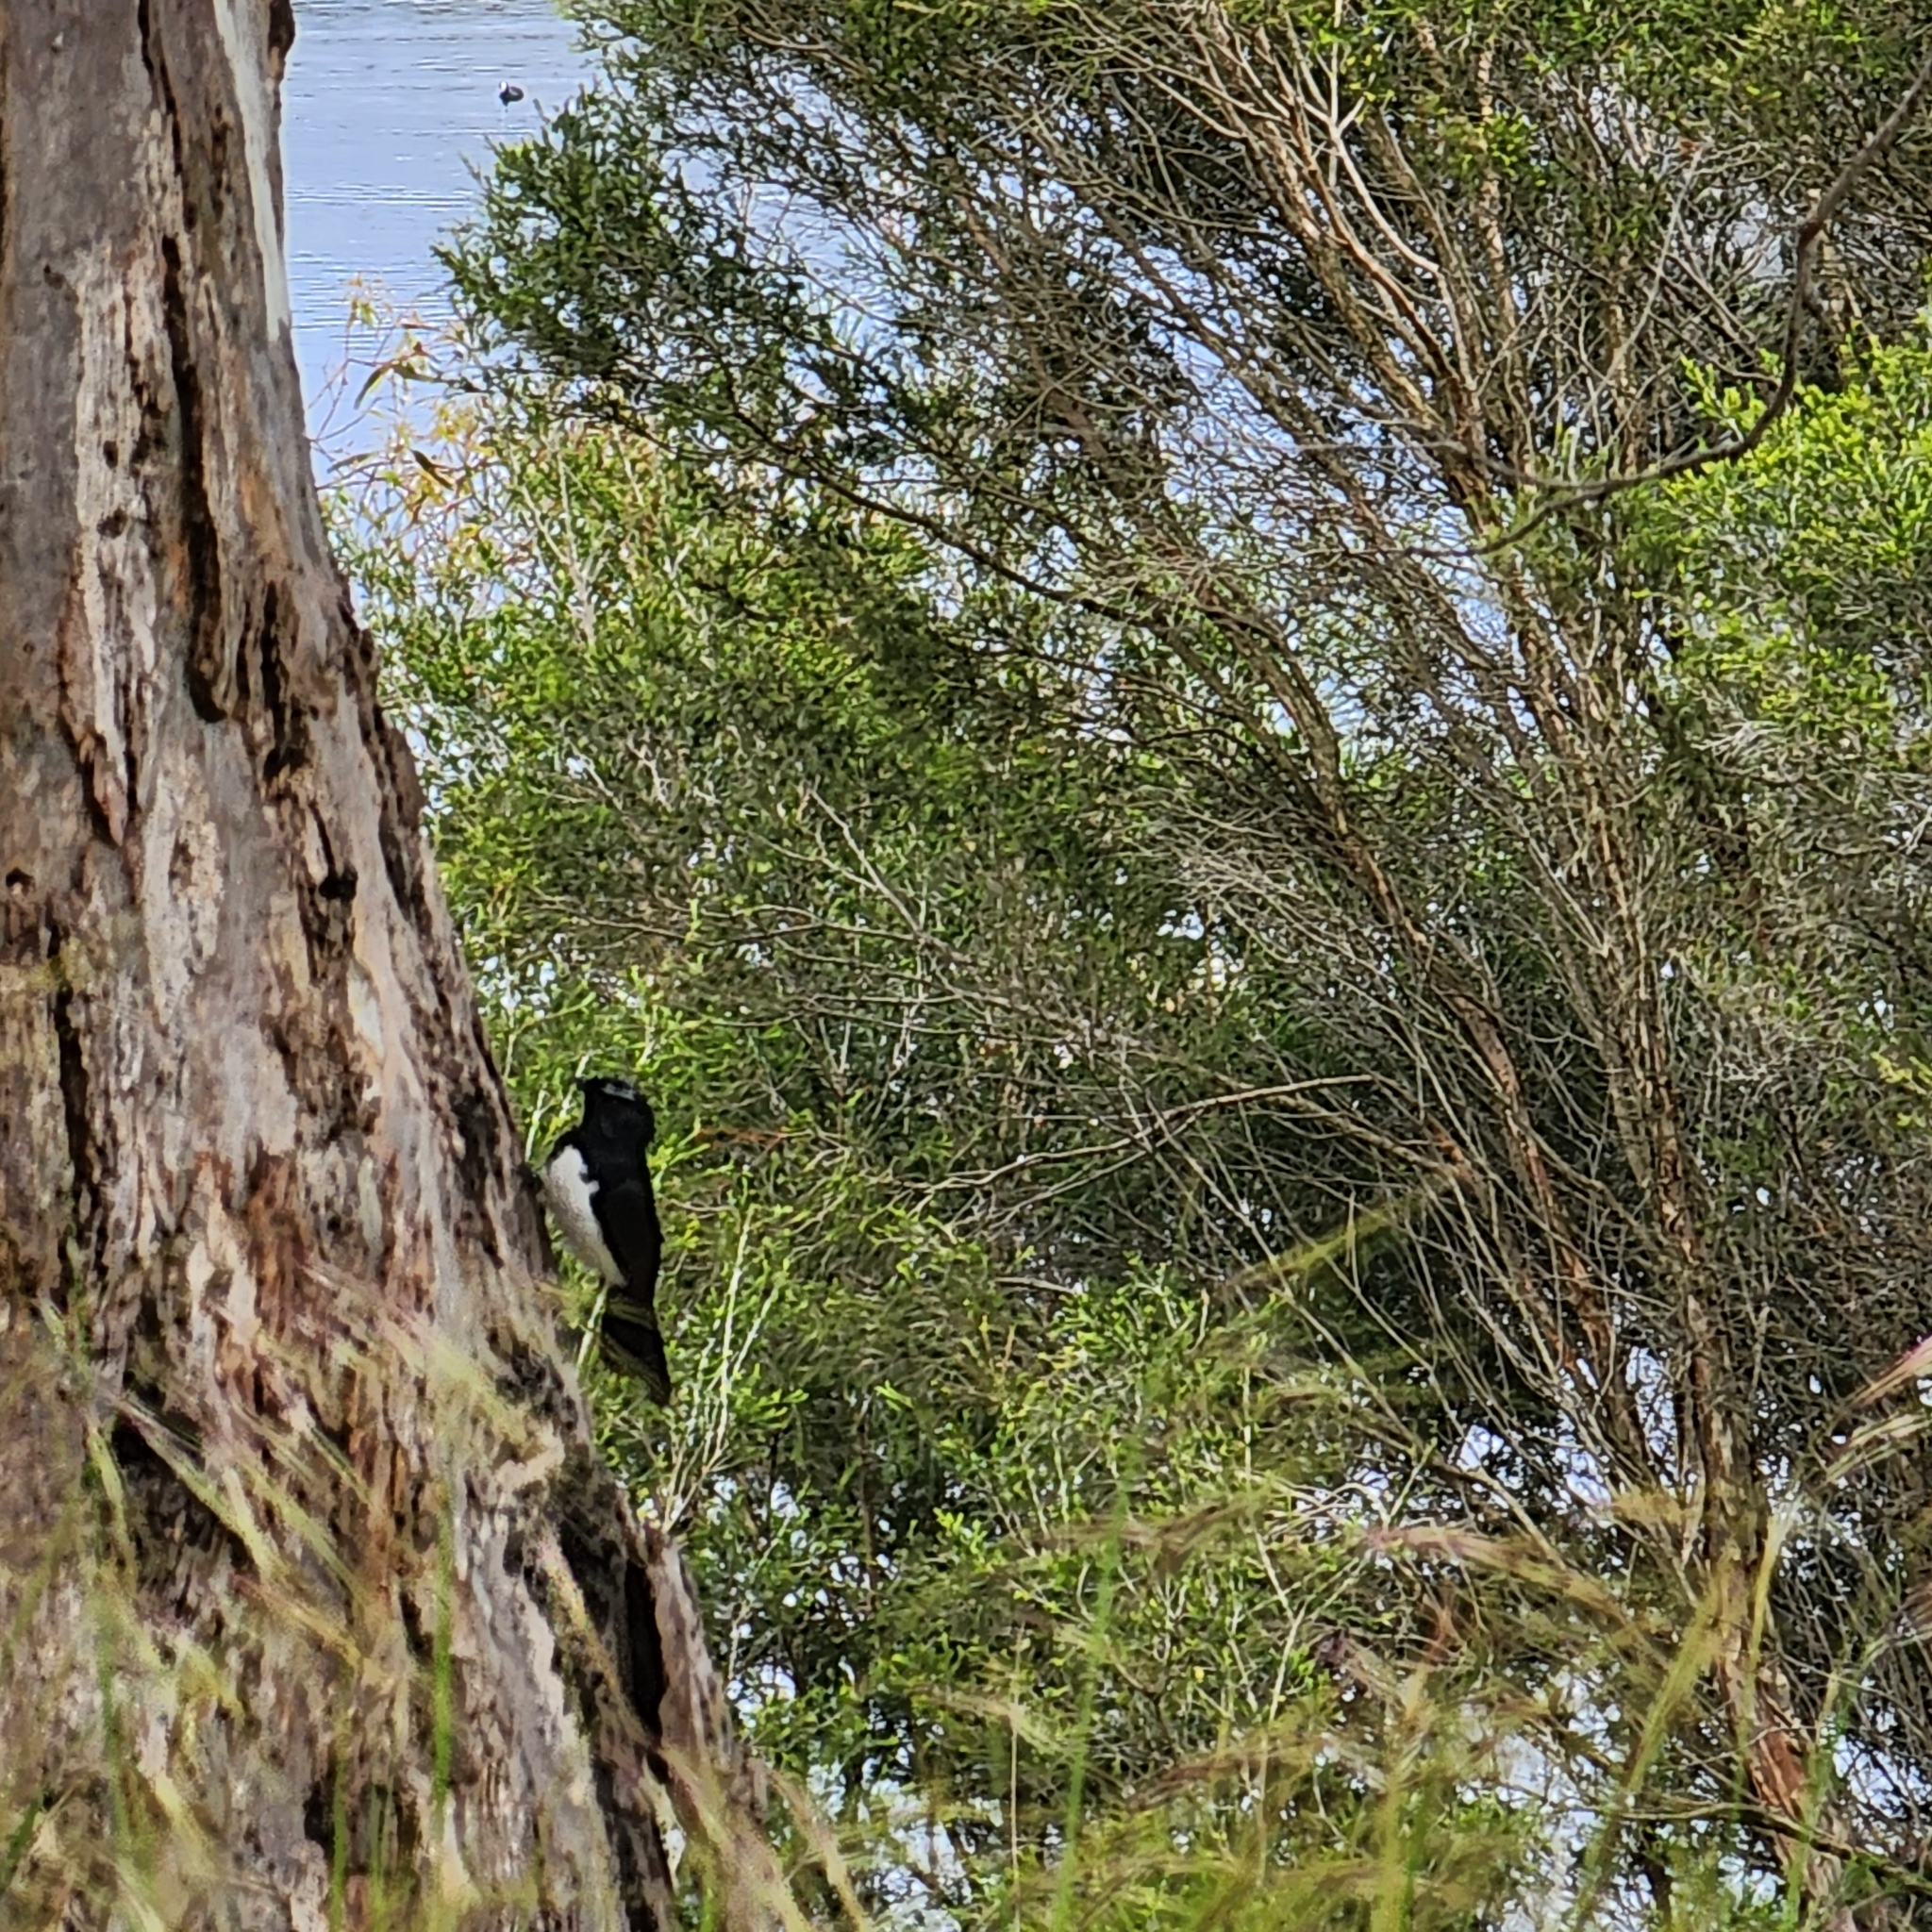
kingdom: Animalia
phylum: Chordata
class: Aves
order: Passeriformes
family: Rhipiduridae
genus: Rhipidura
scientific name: Rhipidura leucophrys
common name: Willie wagtail
